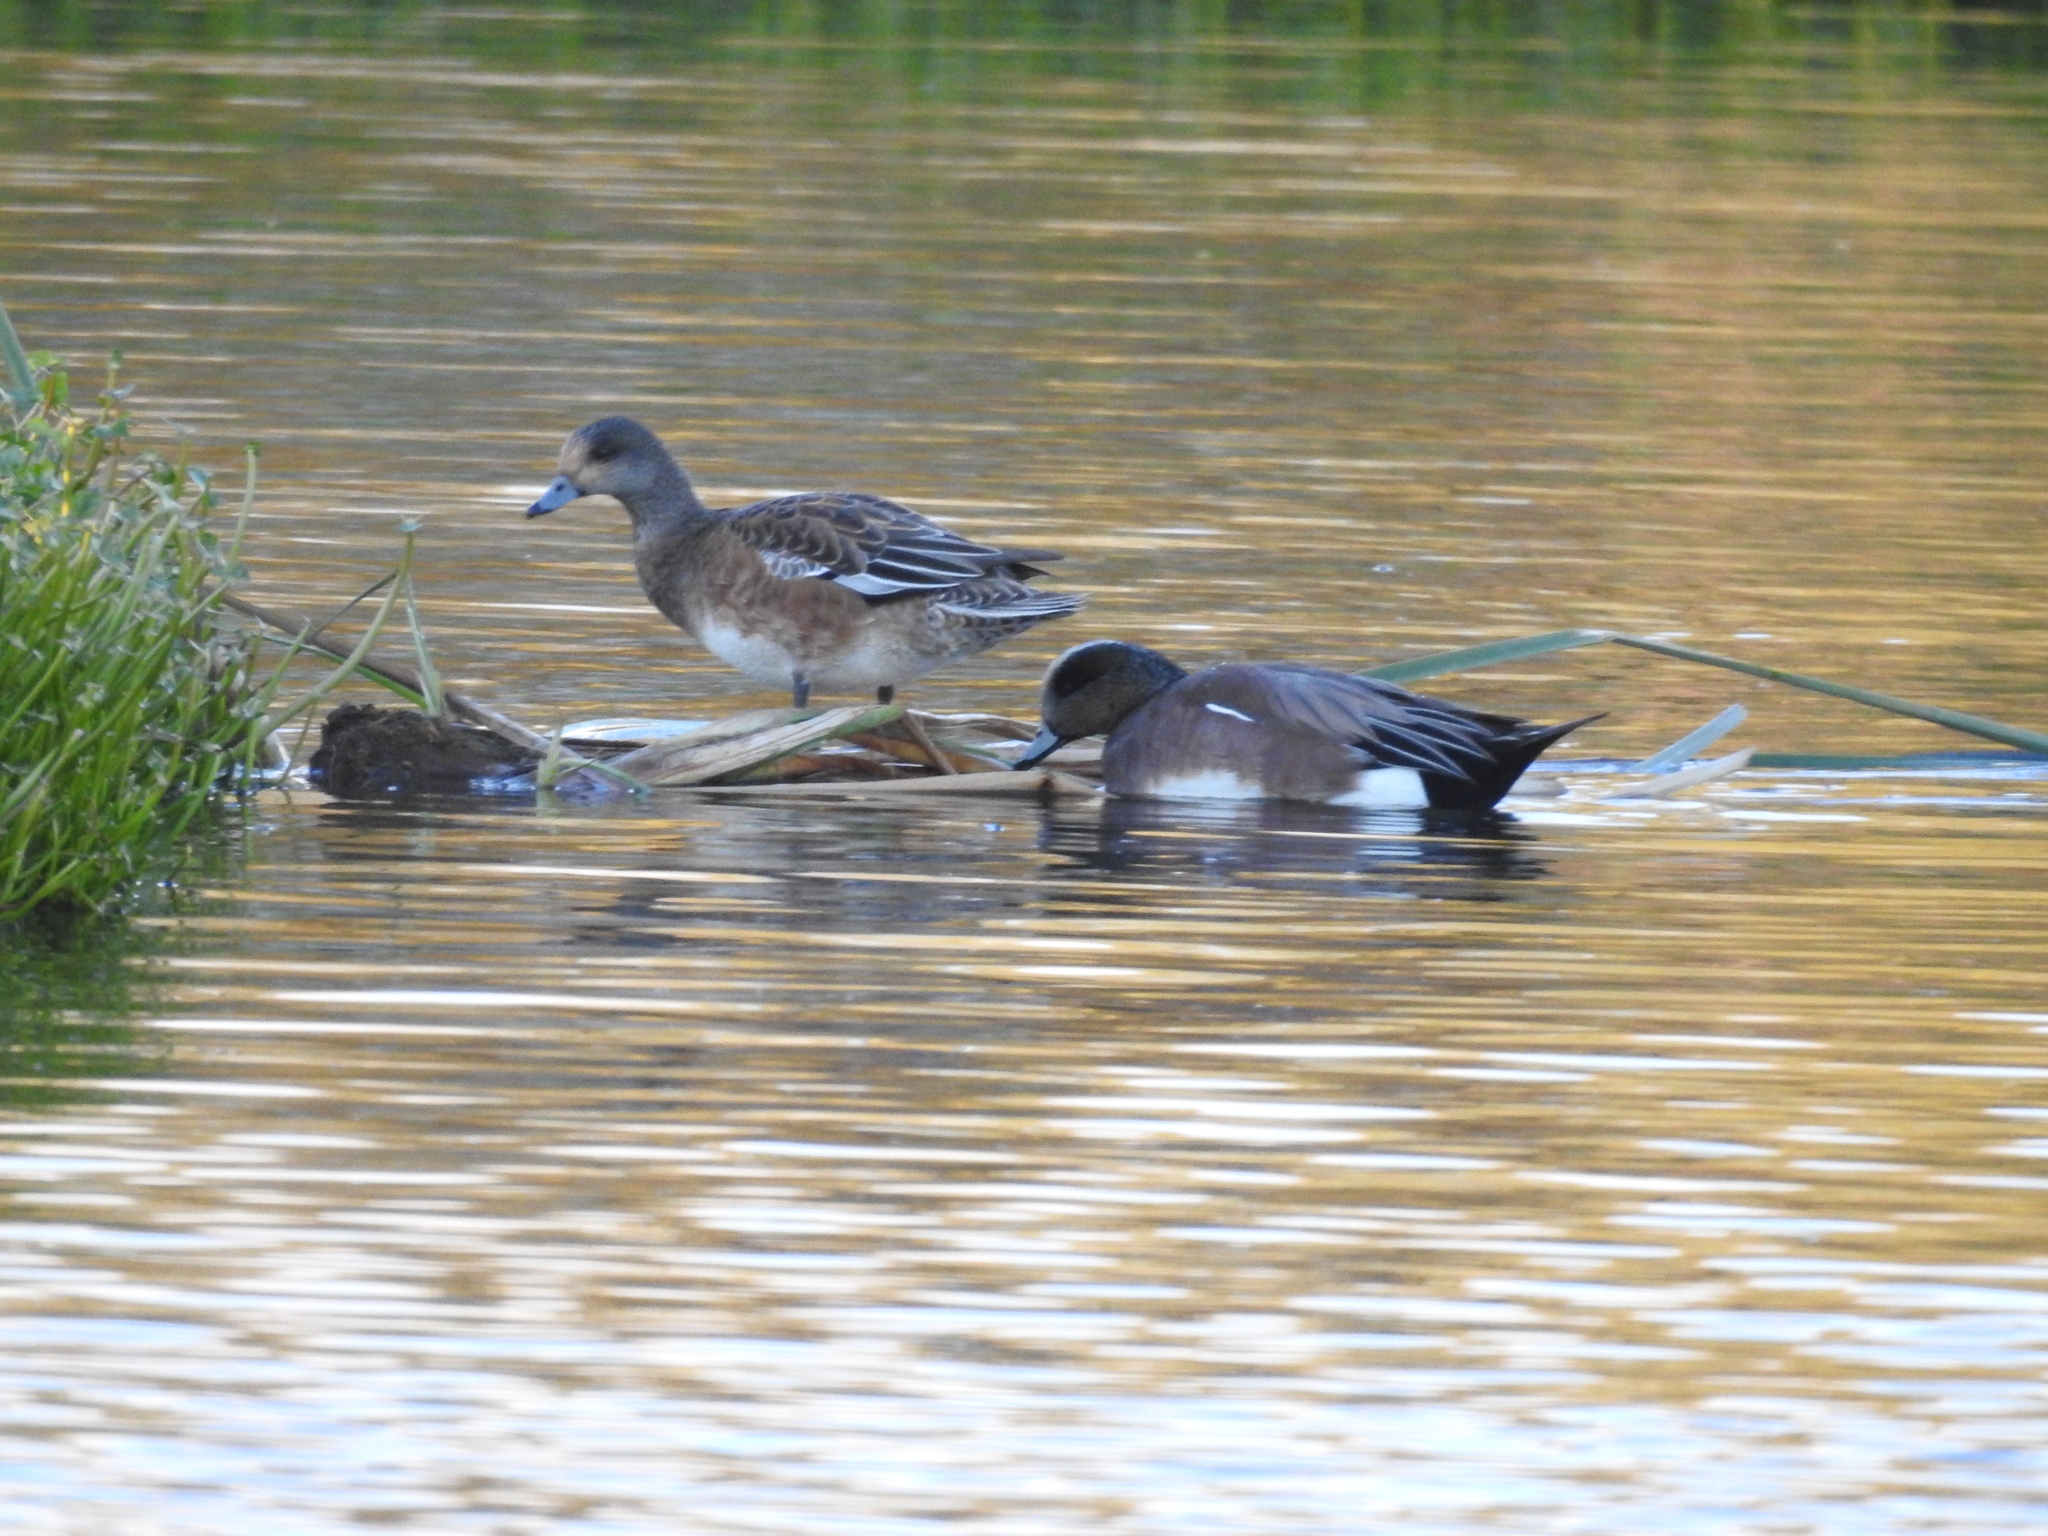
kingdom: Animalia
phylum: Chordata
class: Aves
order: Anseriformes
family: Anatidae
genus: Mareca
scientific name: Mareca americana
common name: American wigeon
